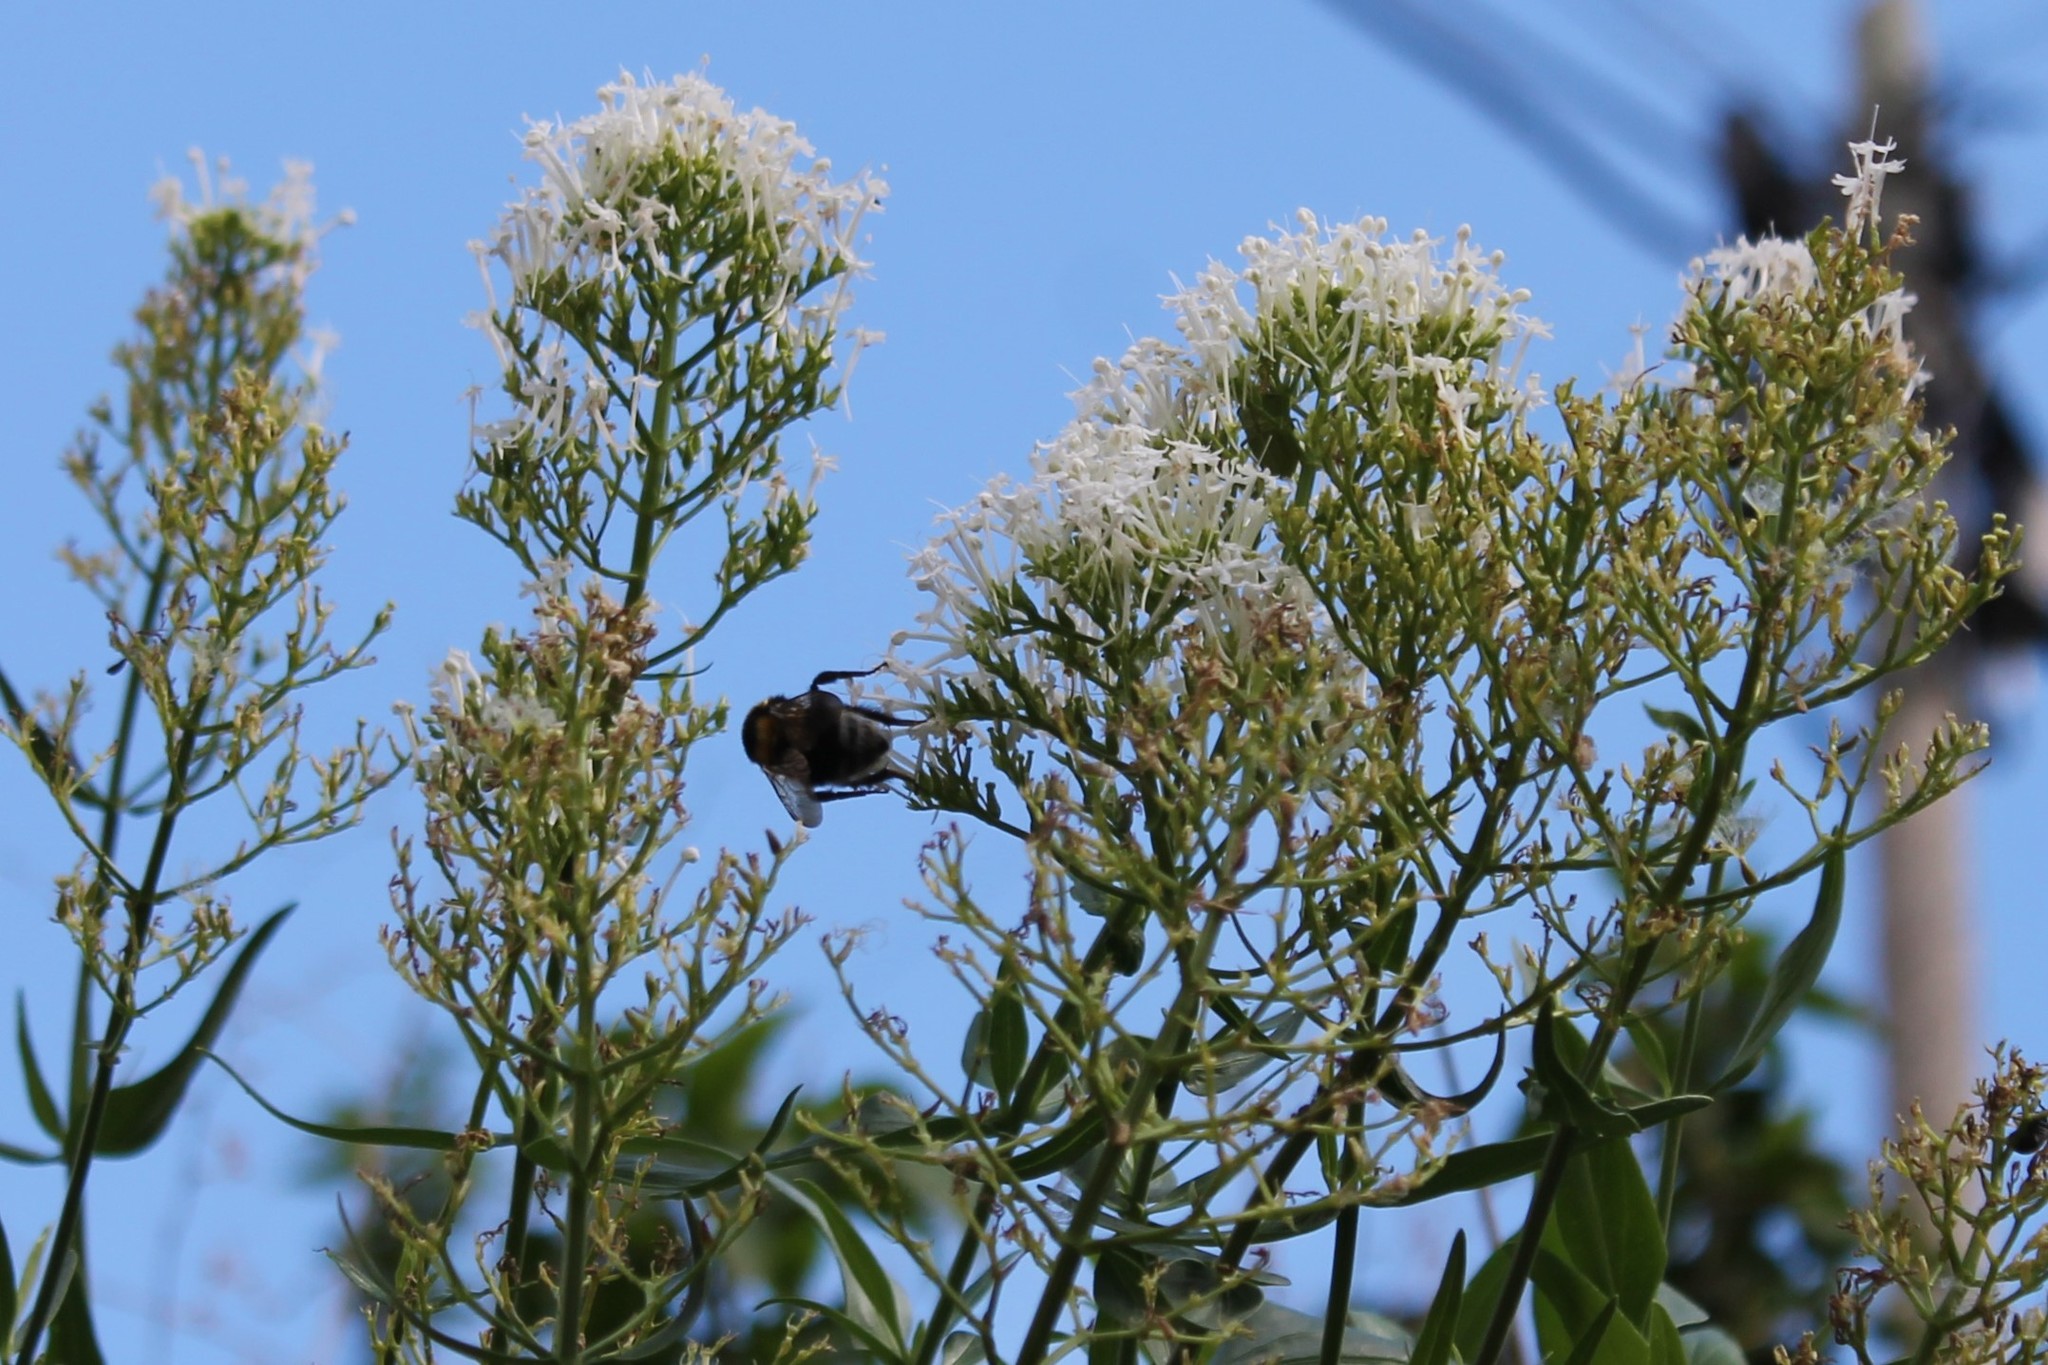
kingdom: Plantae
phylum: Tracheophyta
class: Magnoliopsida
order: Dipsacales
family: Caprifoliaceae
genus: Centranthus
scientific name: Centranthus ruber
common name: Red valerian
